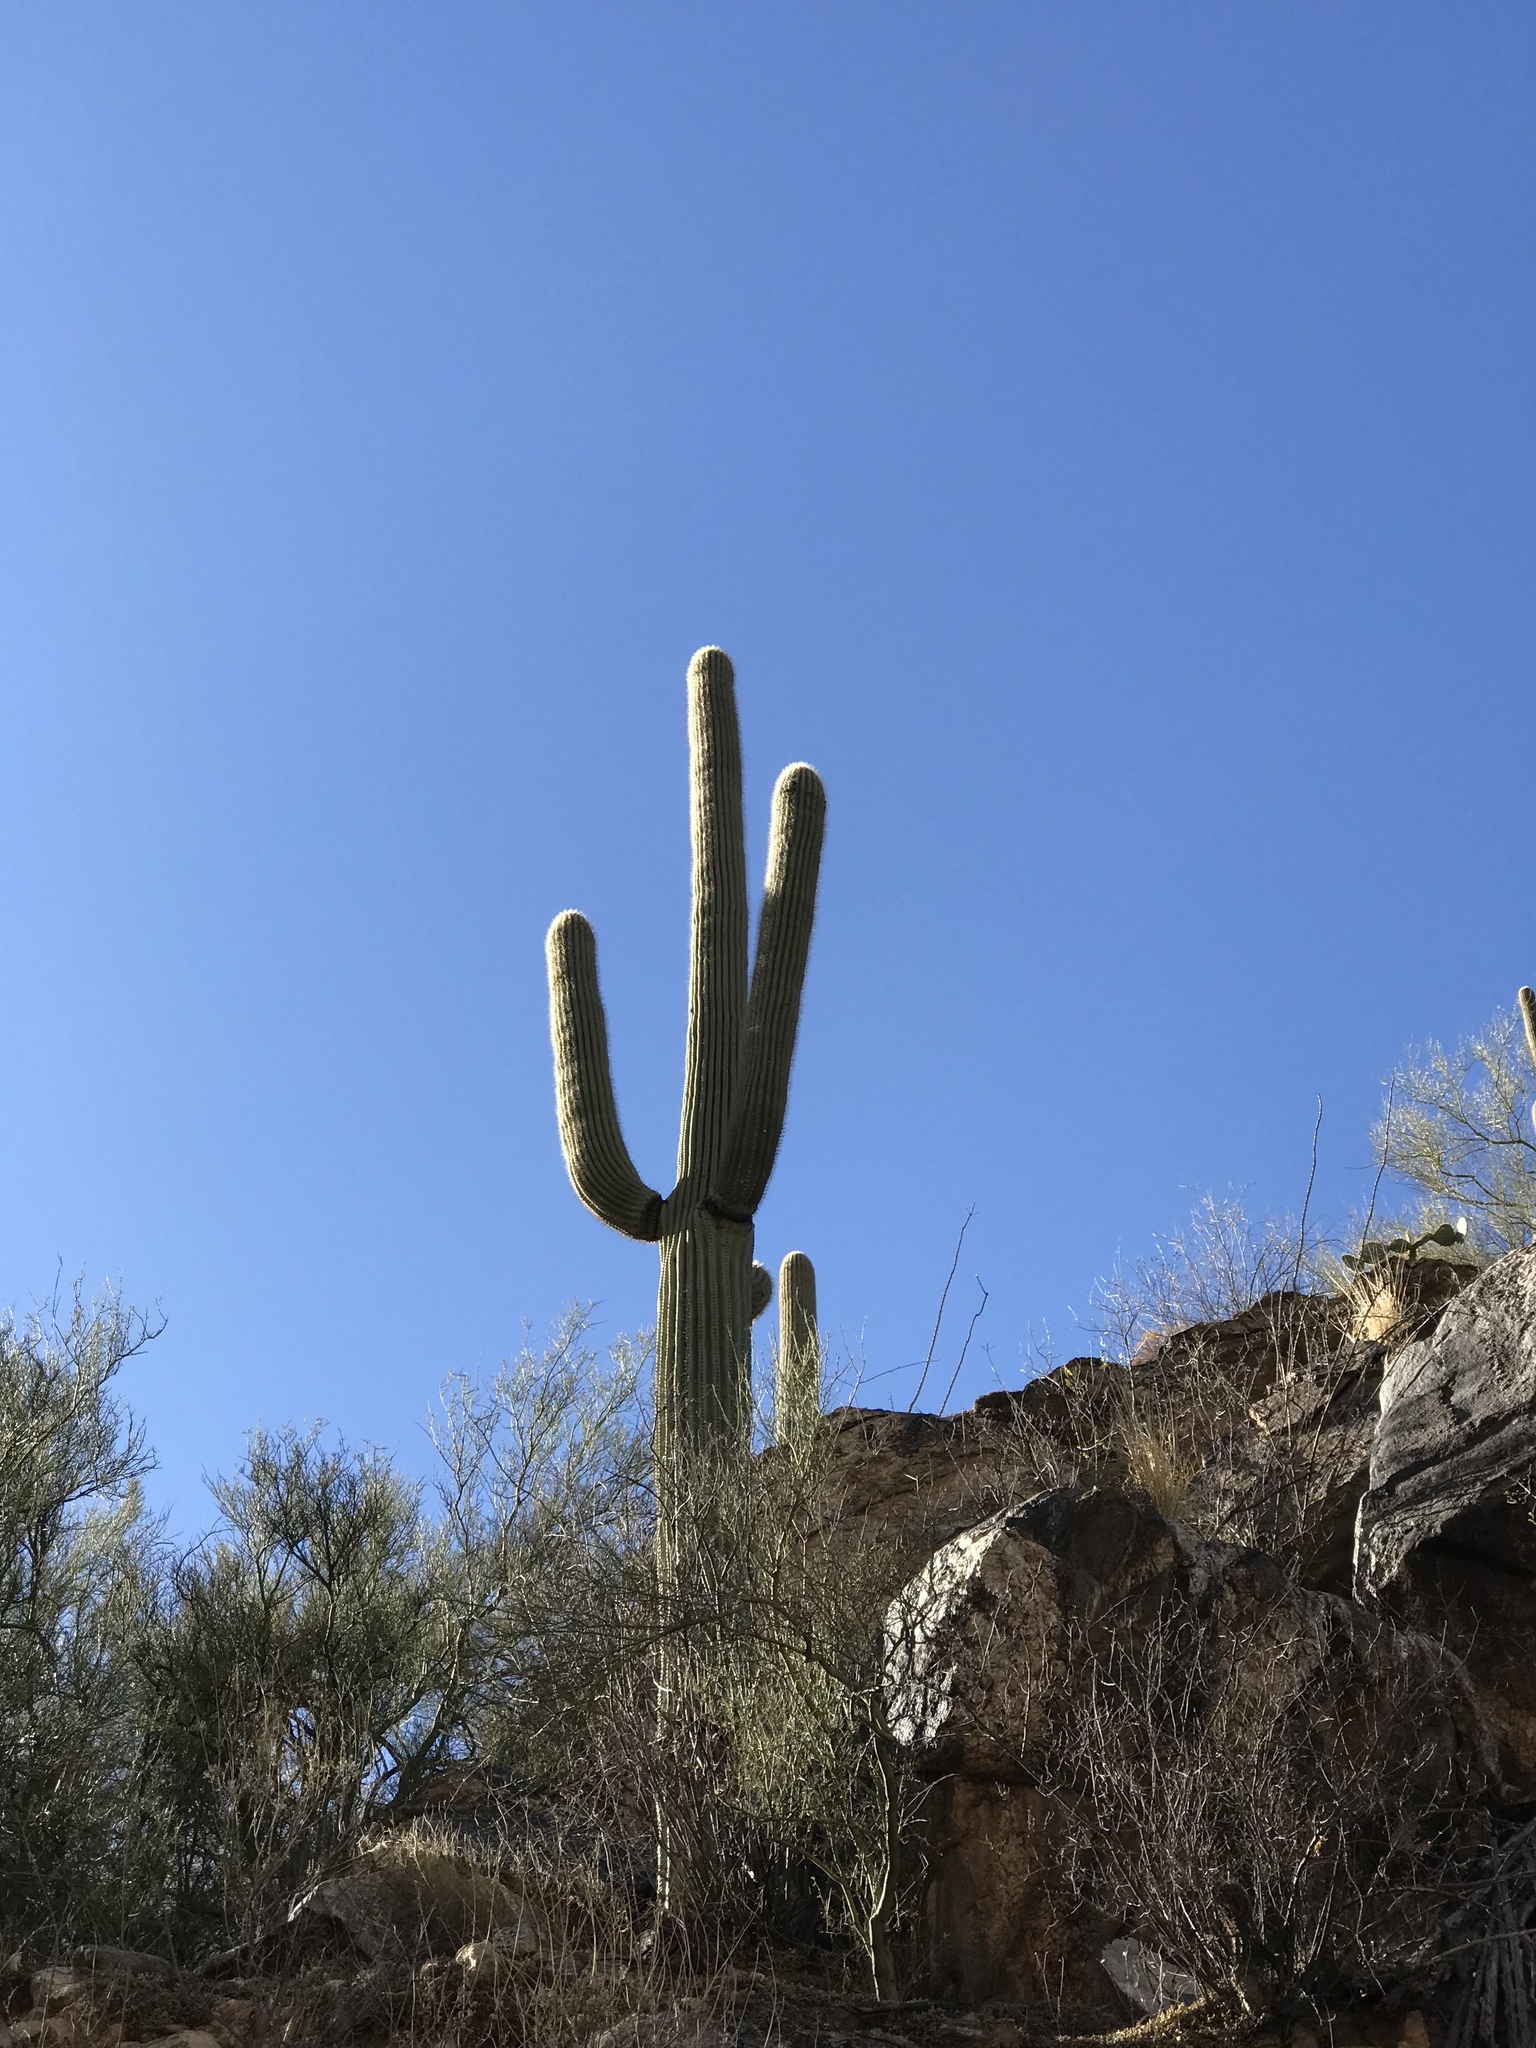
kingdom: Plantae
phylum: Tracheophyta
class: Magnoliopsida
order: Caryophyllales
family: Cactaceae
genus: Carnegiea
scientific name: Carnegiea gigantea
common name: Saguaro
